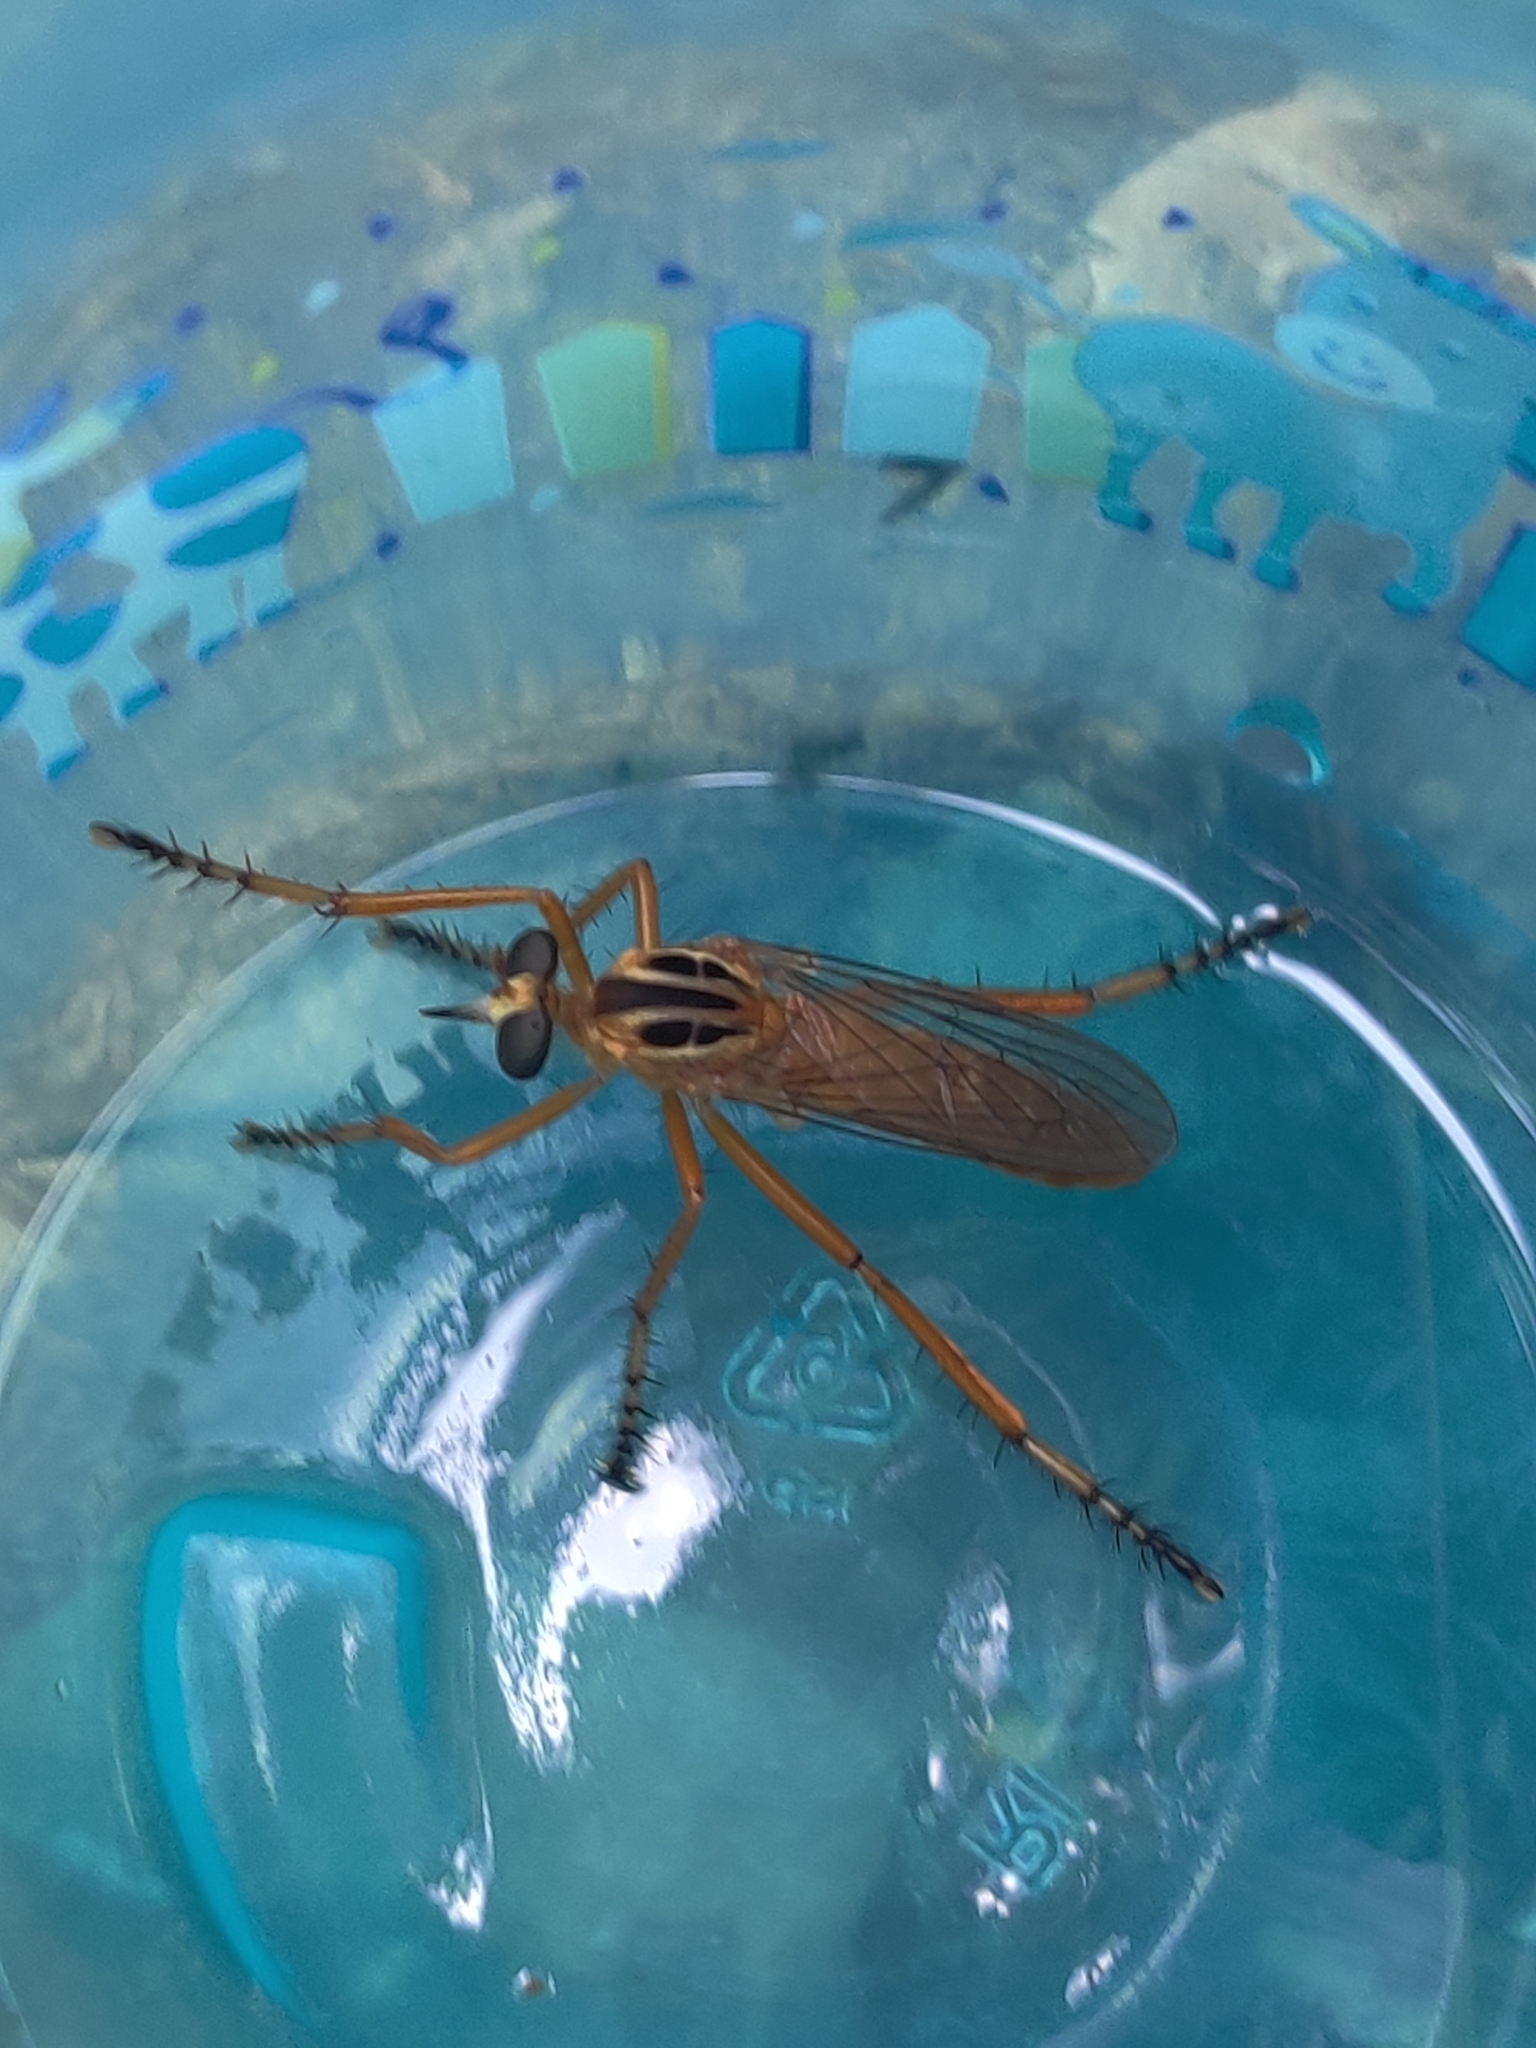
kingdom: Animalia
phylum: Arthropoda
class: Insecta
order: Diptera
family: Asilidae
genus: Diogmites
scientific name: Diogmites neoternatus
